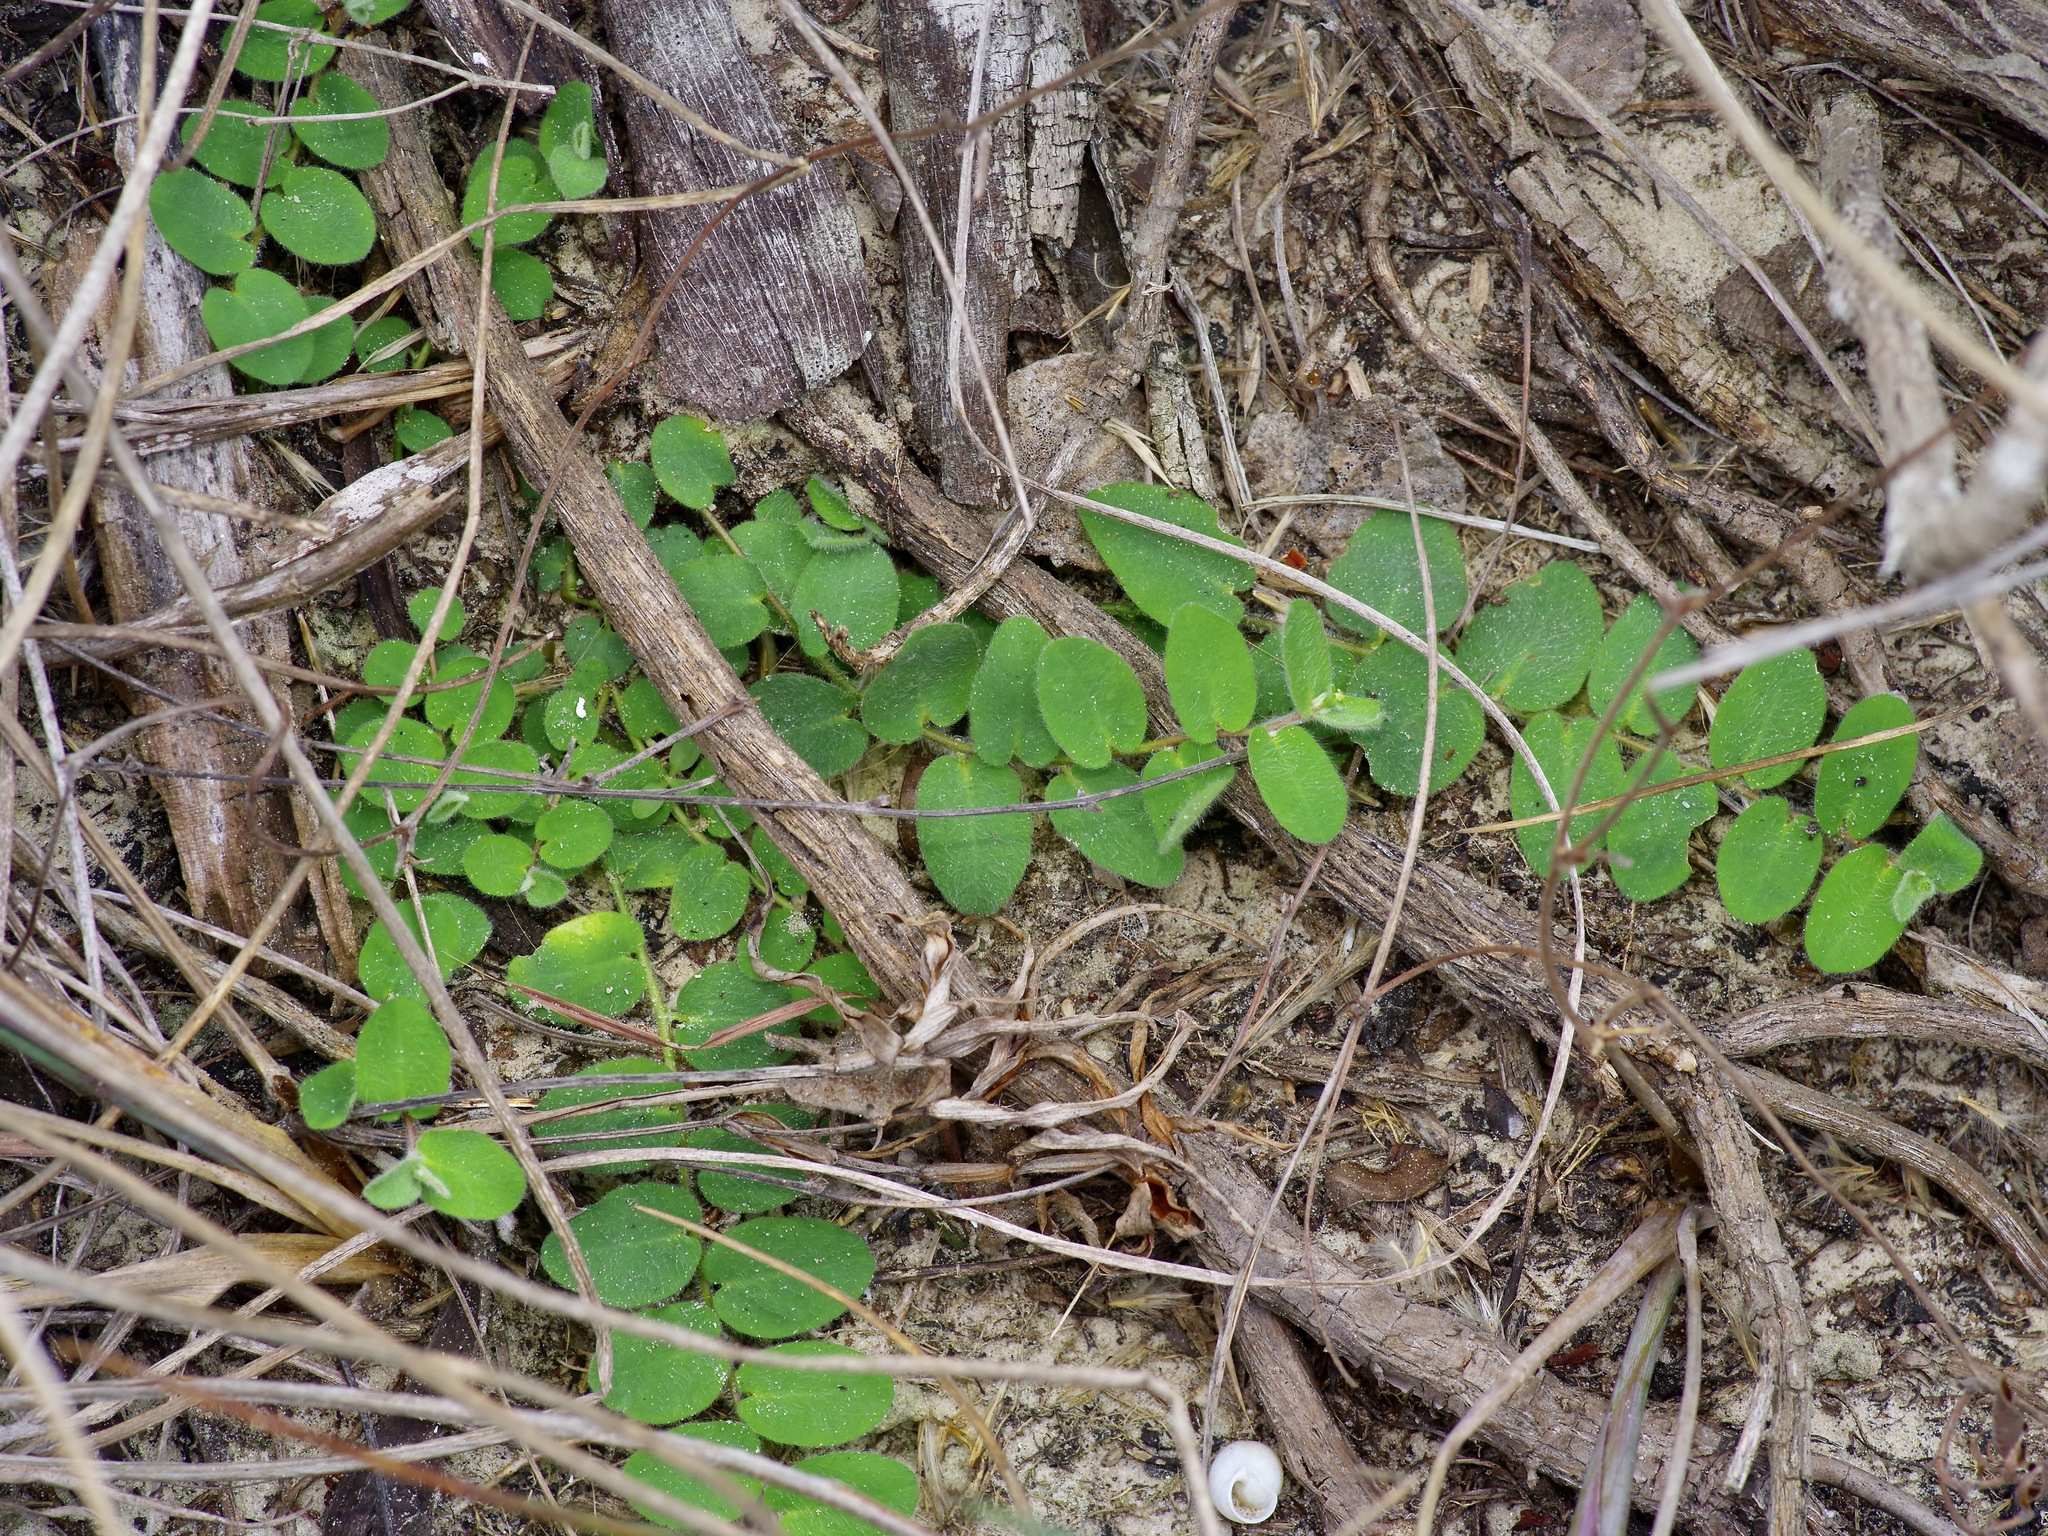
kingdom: Plantae
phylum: Tracheophyta
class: Magnoliopsida
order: Malpighiales
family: Euphorbiaceae
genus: Euphorbia
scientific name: Euphorbia innocua
